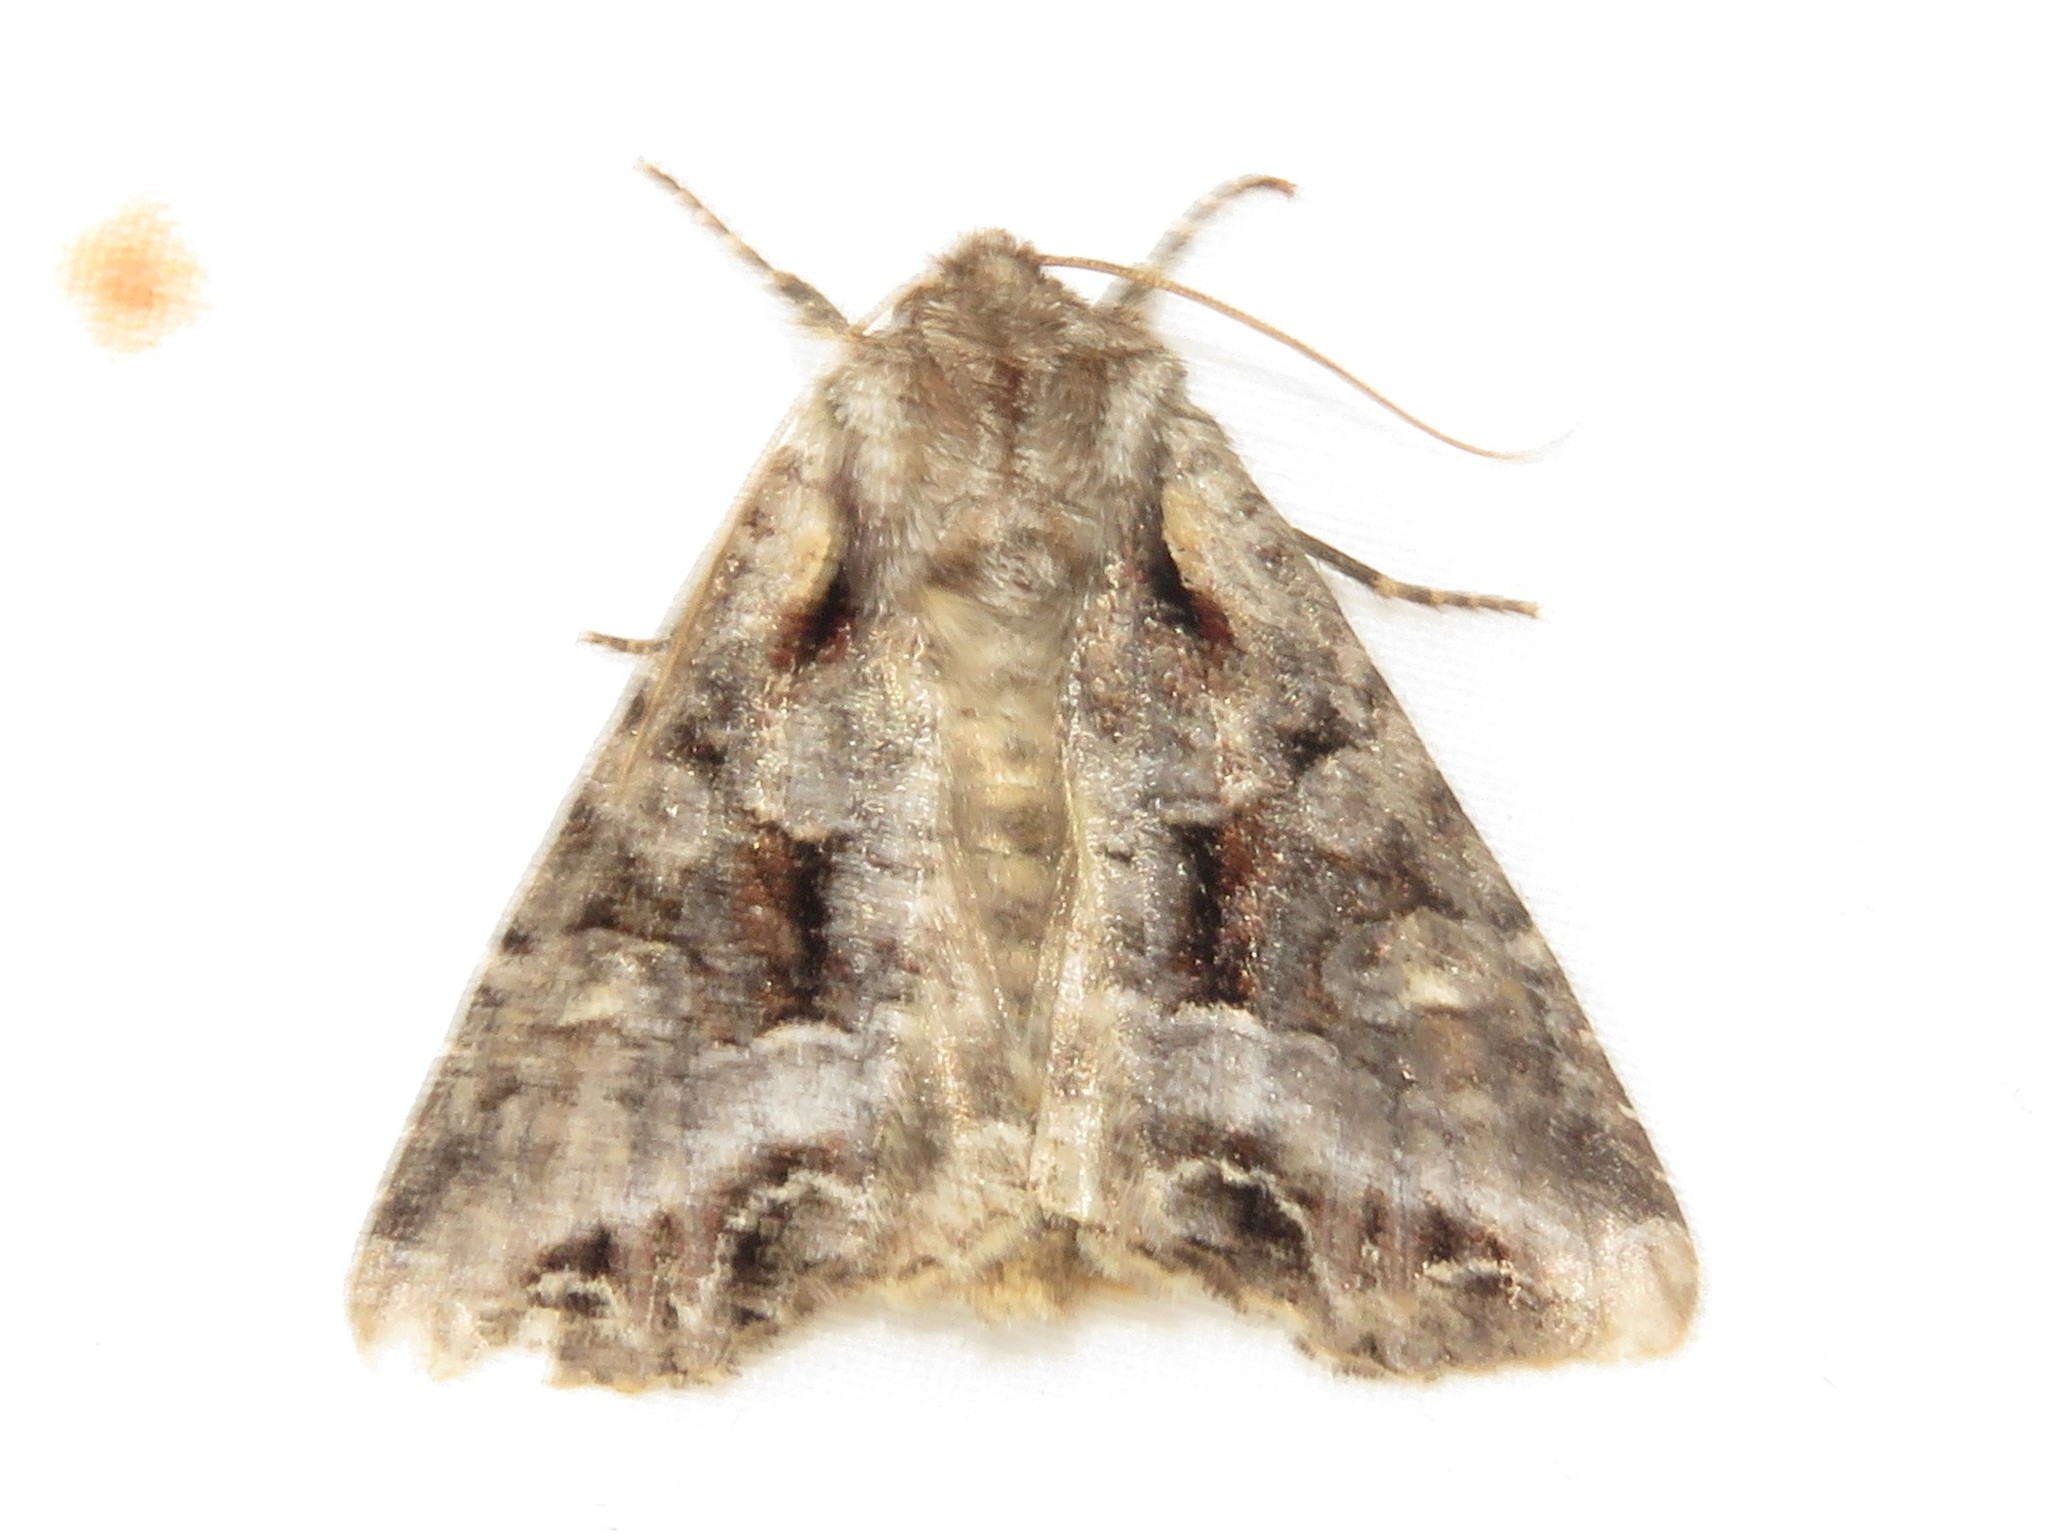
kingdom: Animalia
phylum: Arthropoda
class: Insecta
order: Lepidoptera
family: Noctuidae
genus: Lacanobia
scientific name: Lacanobia grandis
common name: Grand arches moth
